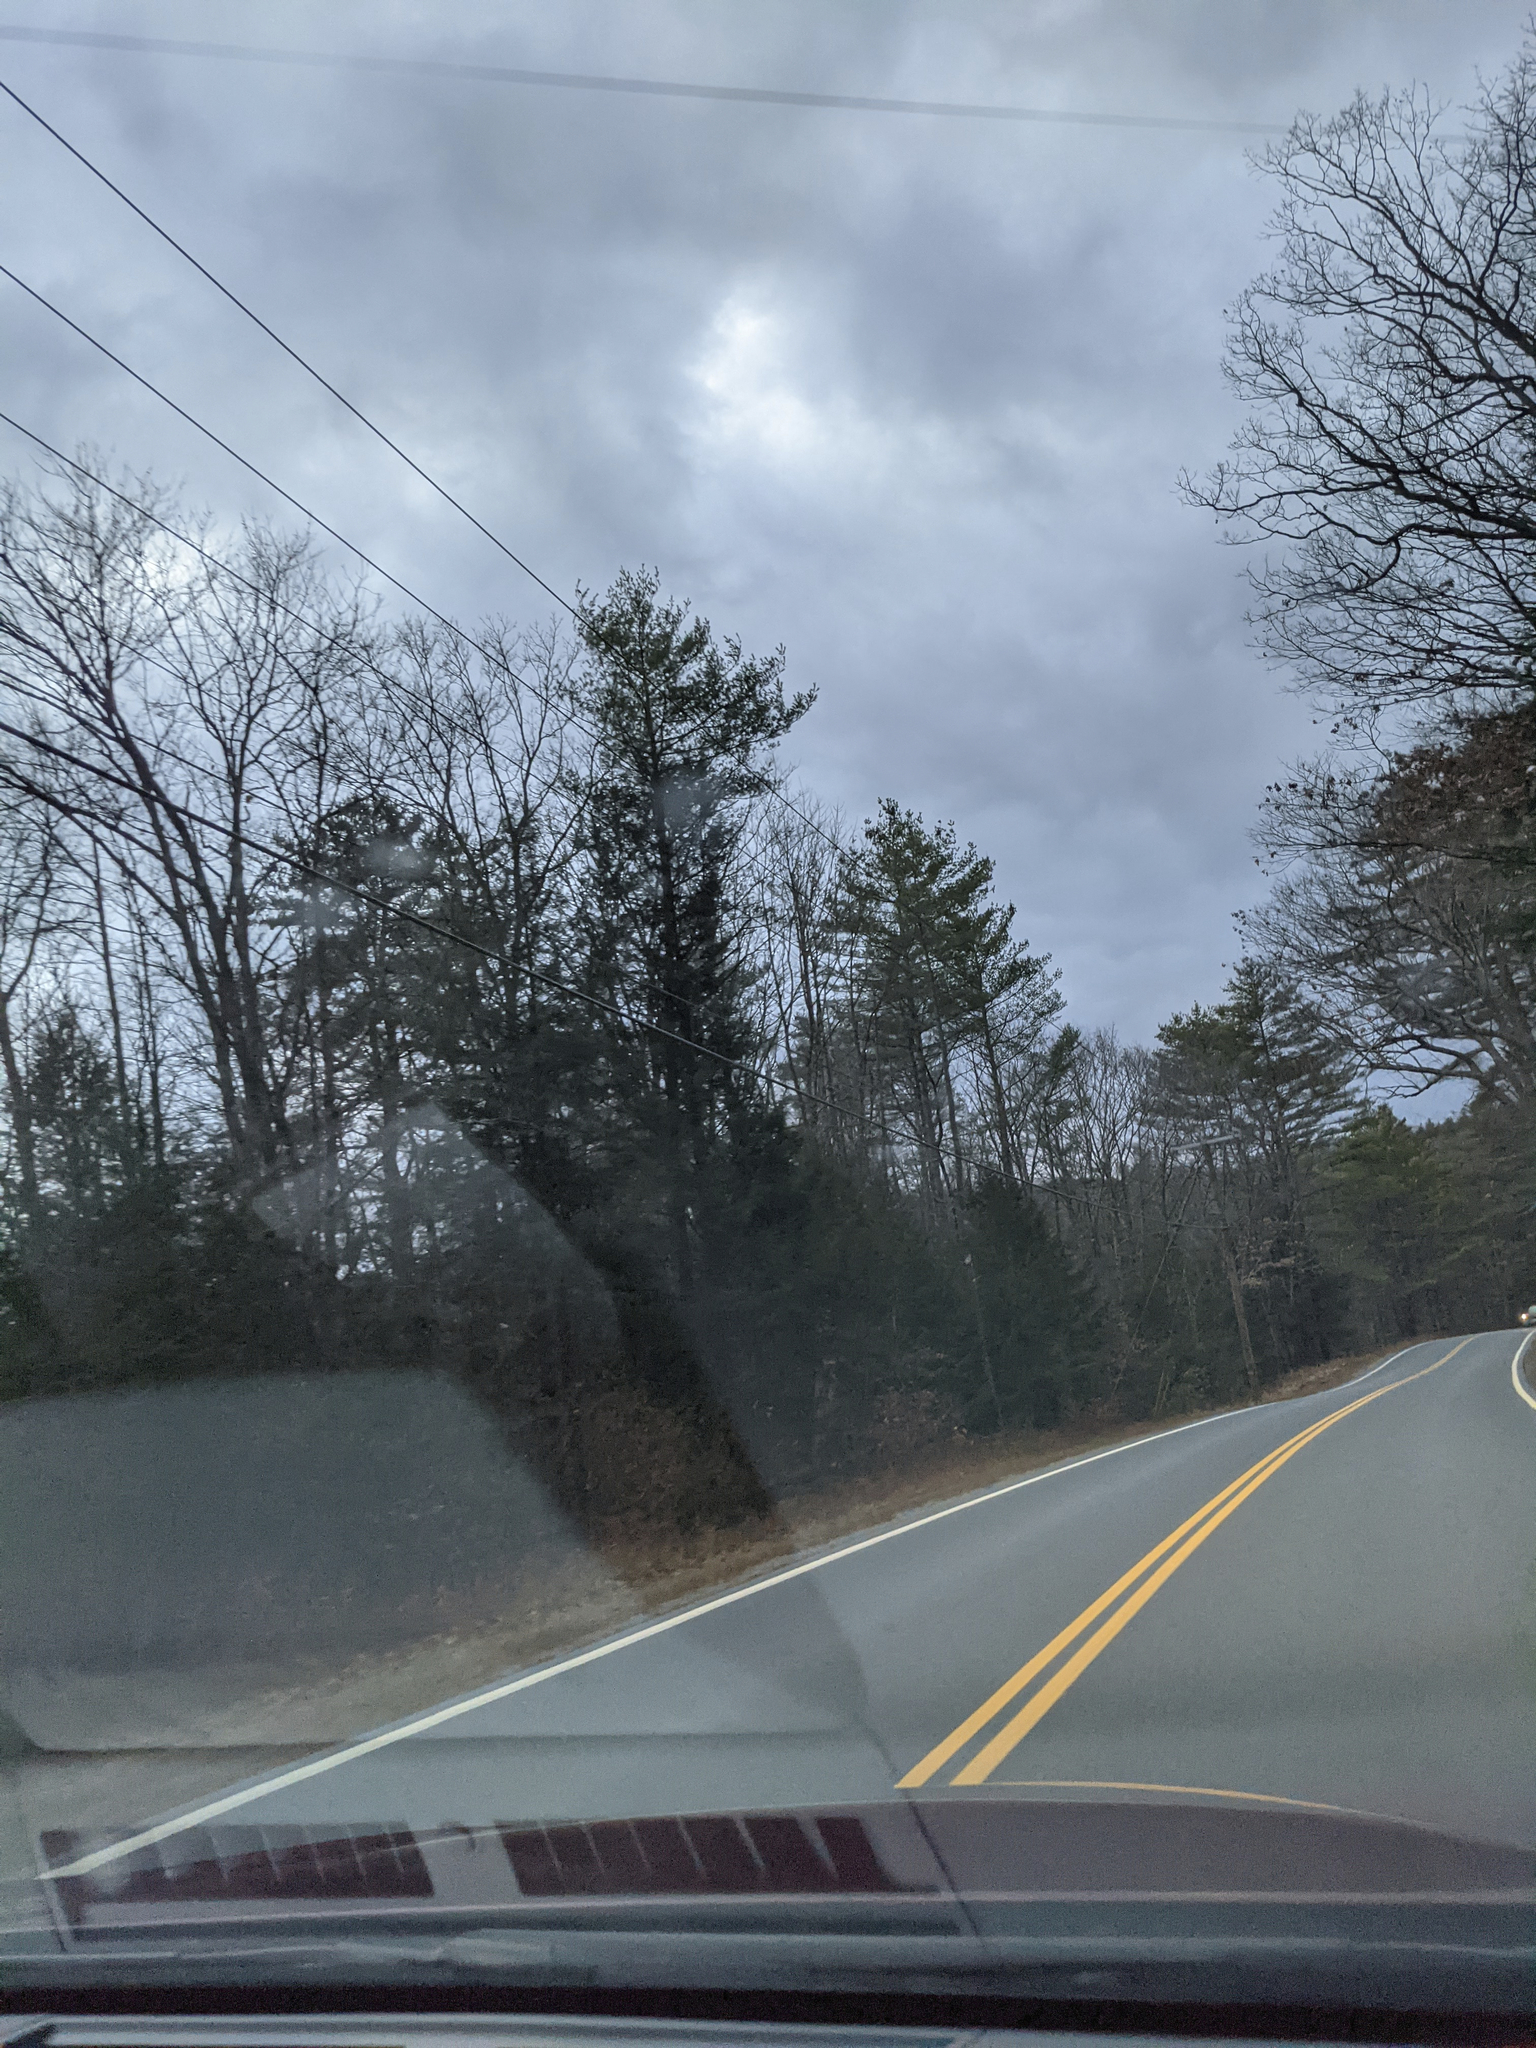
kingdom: Plantae
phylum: Tracheophyta
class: Pinopsida
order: Pinales
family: Pinaceae
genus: Pinus
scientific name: Pinus strobus
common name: Weymouth pine
